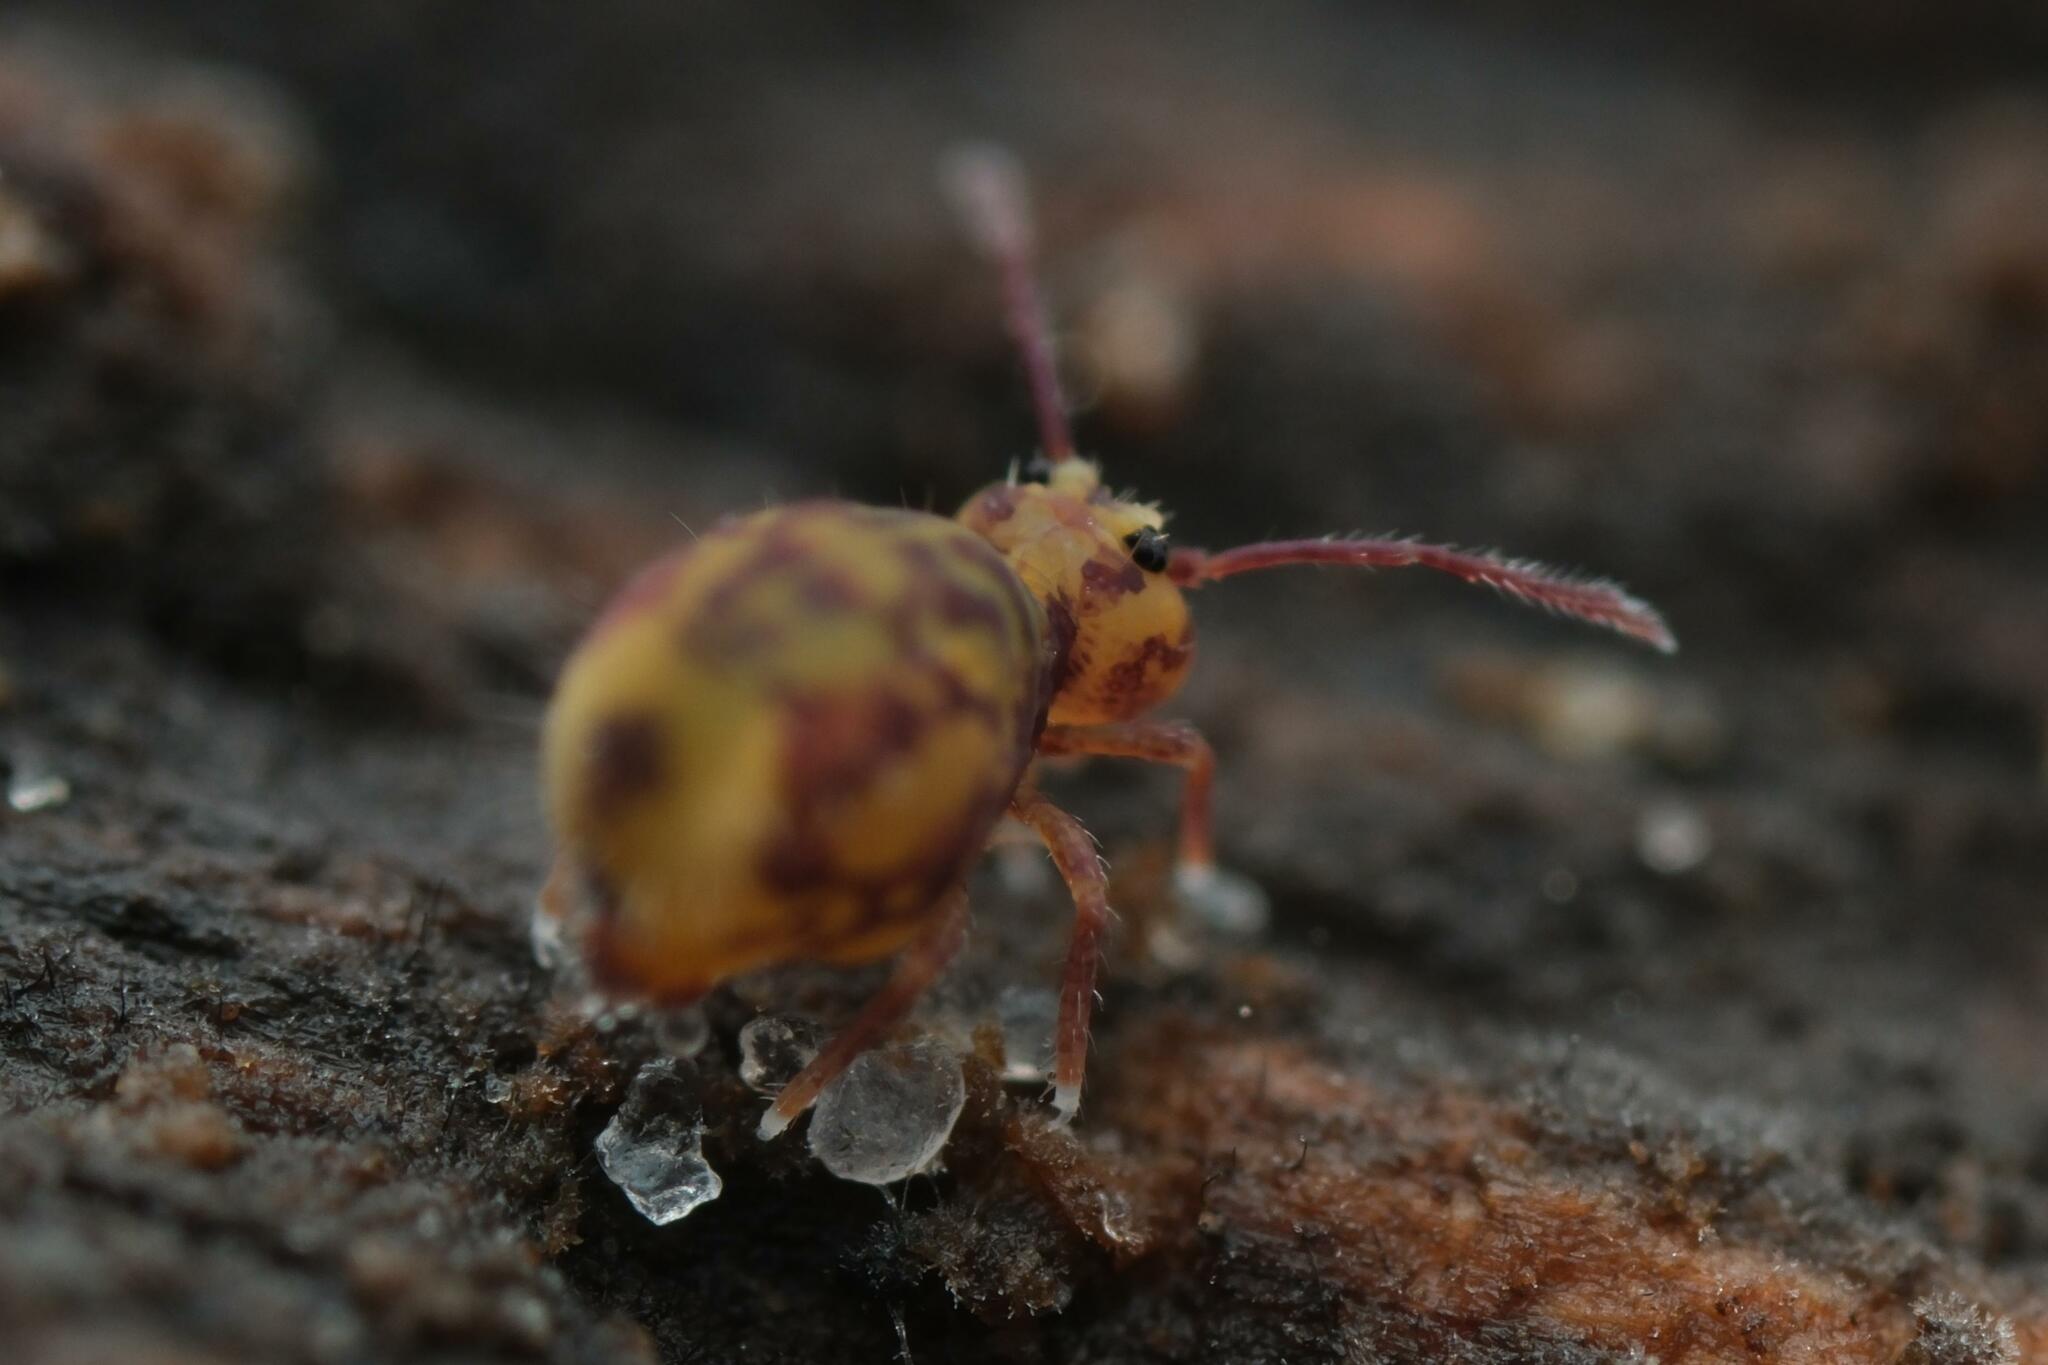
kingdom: Animalia
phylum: Arthropoda
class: Collembola
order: Symphypleona
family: Dicyrtomidae
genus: Dicyrtomina
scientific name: Dicyrtomina ornata
